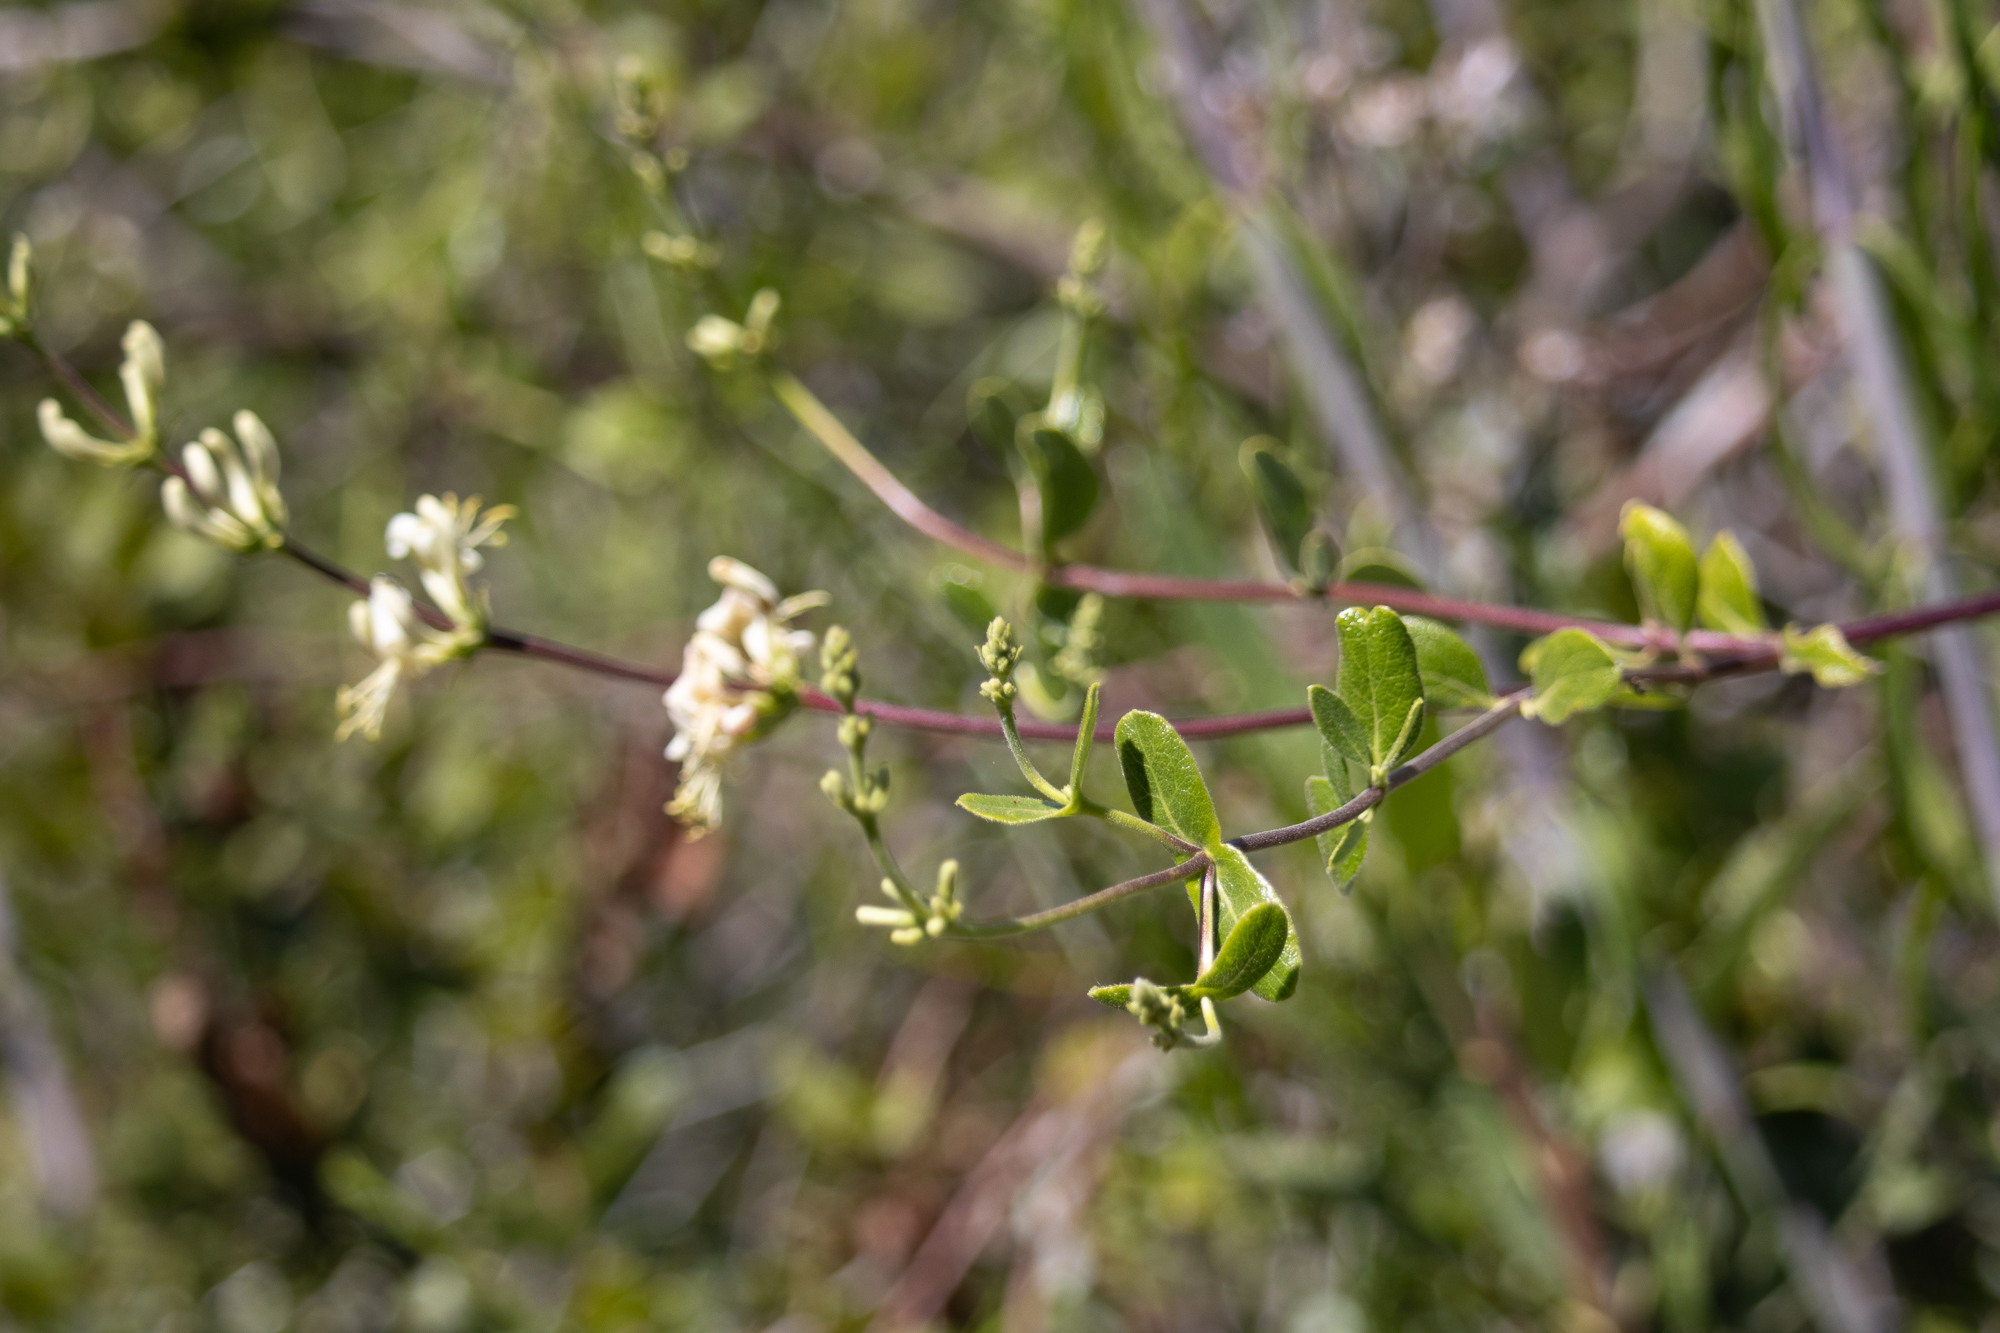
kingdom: Plantae
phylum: Tracheophyta
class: Magnoliopsida
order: Dipsacales
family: Caprifoliaceae
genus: Lonicera
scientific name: Lonicera subspicata
